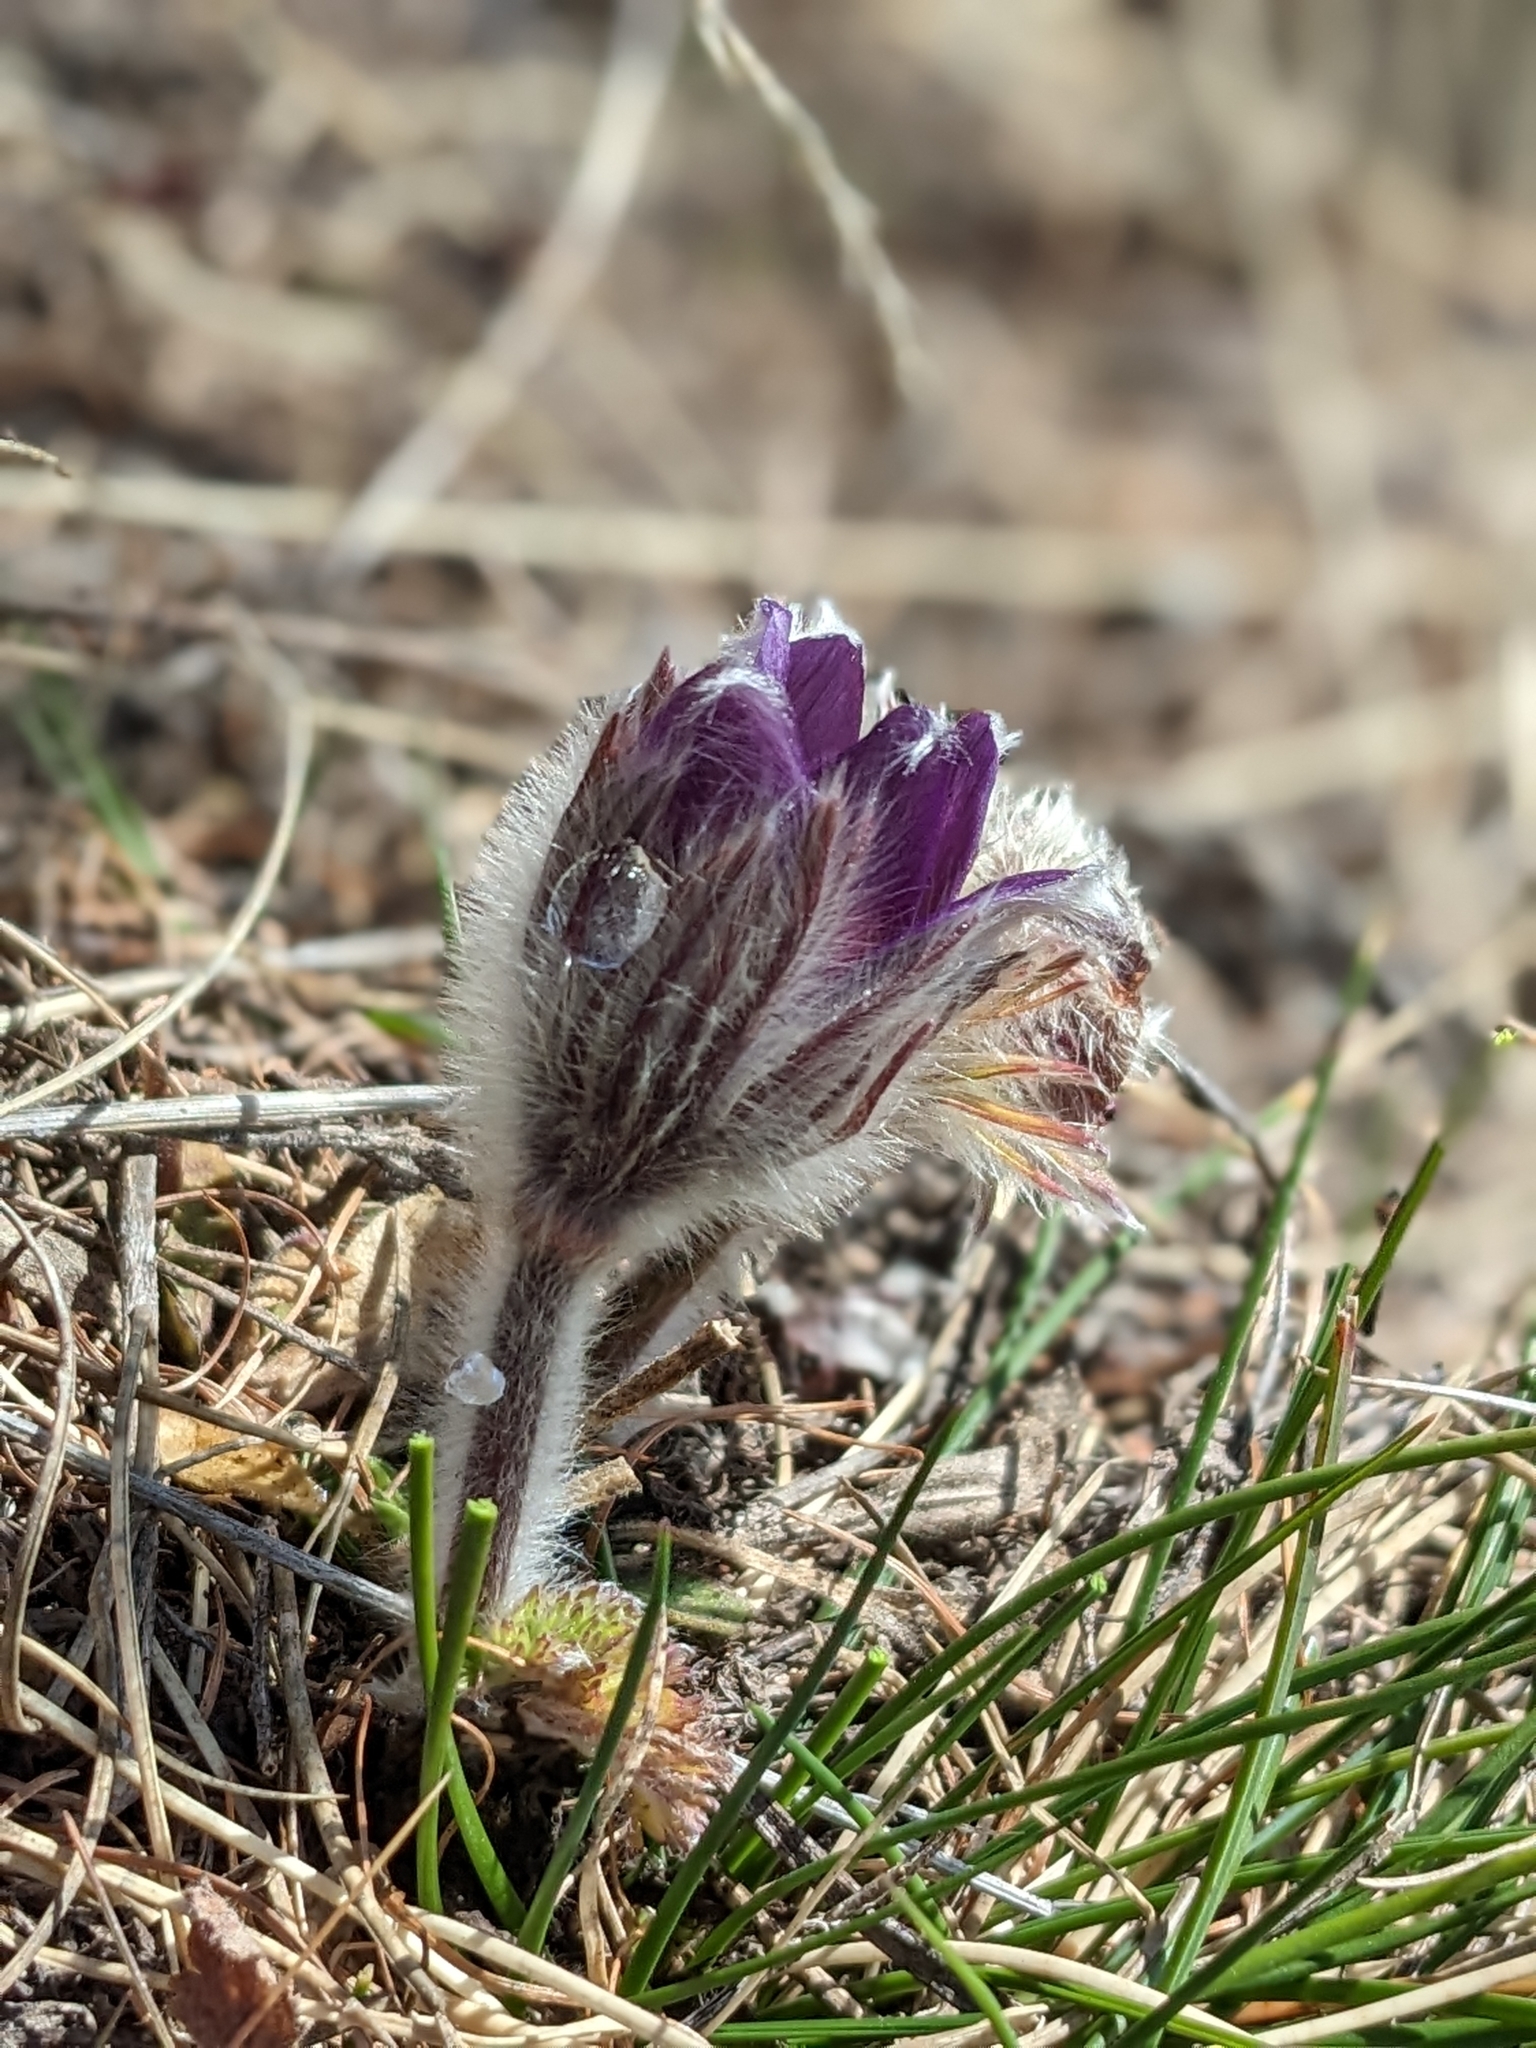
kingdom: Plantae
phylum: Tracheophyta
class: Magnoliopsida
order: Ranunculales
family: Ranunculaceae
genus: Pulsatilla
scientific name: Pulsatilla montana
